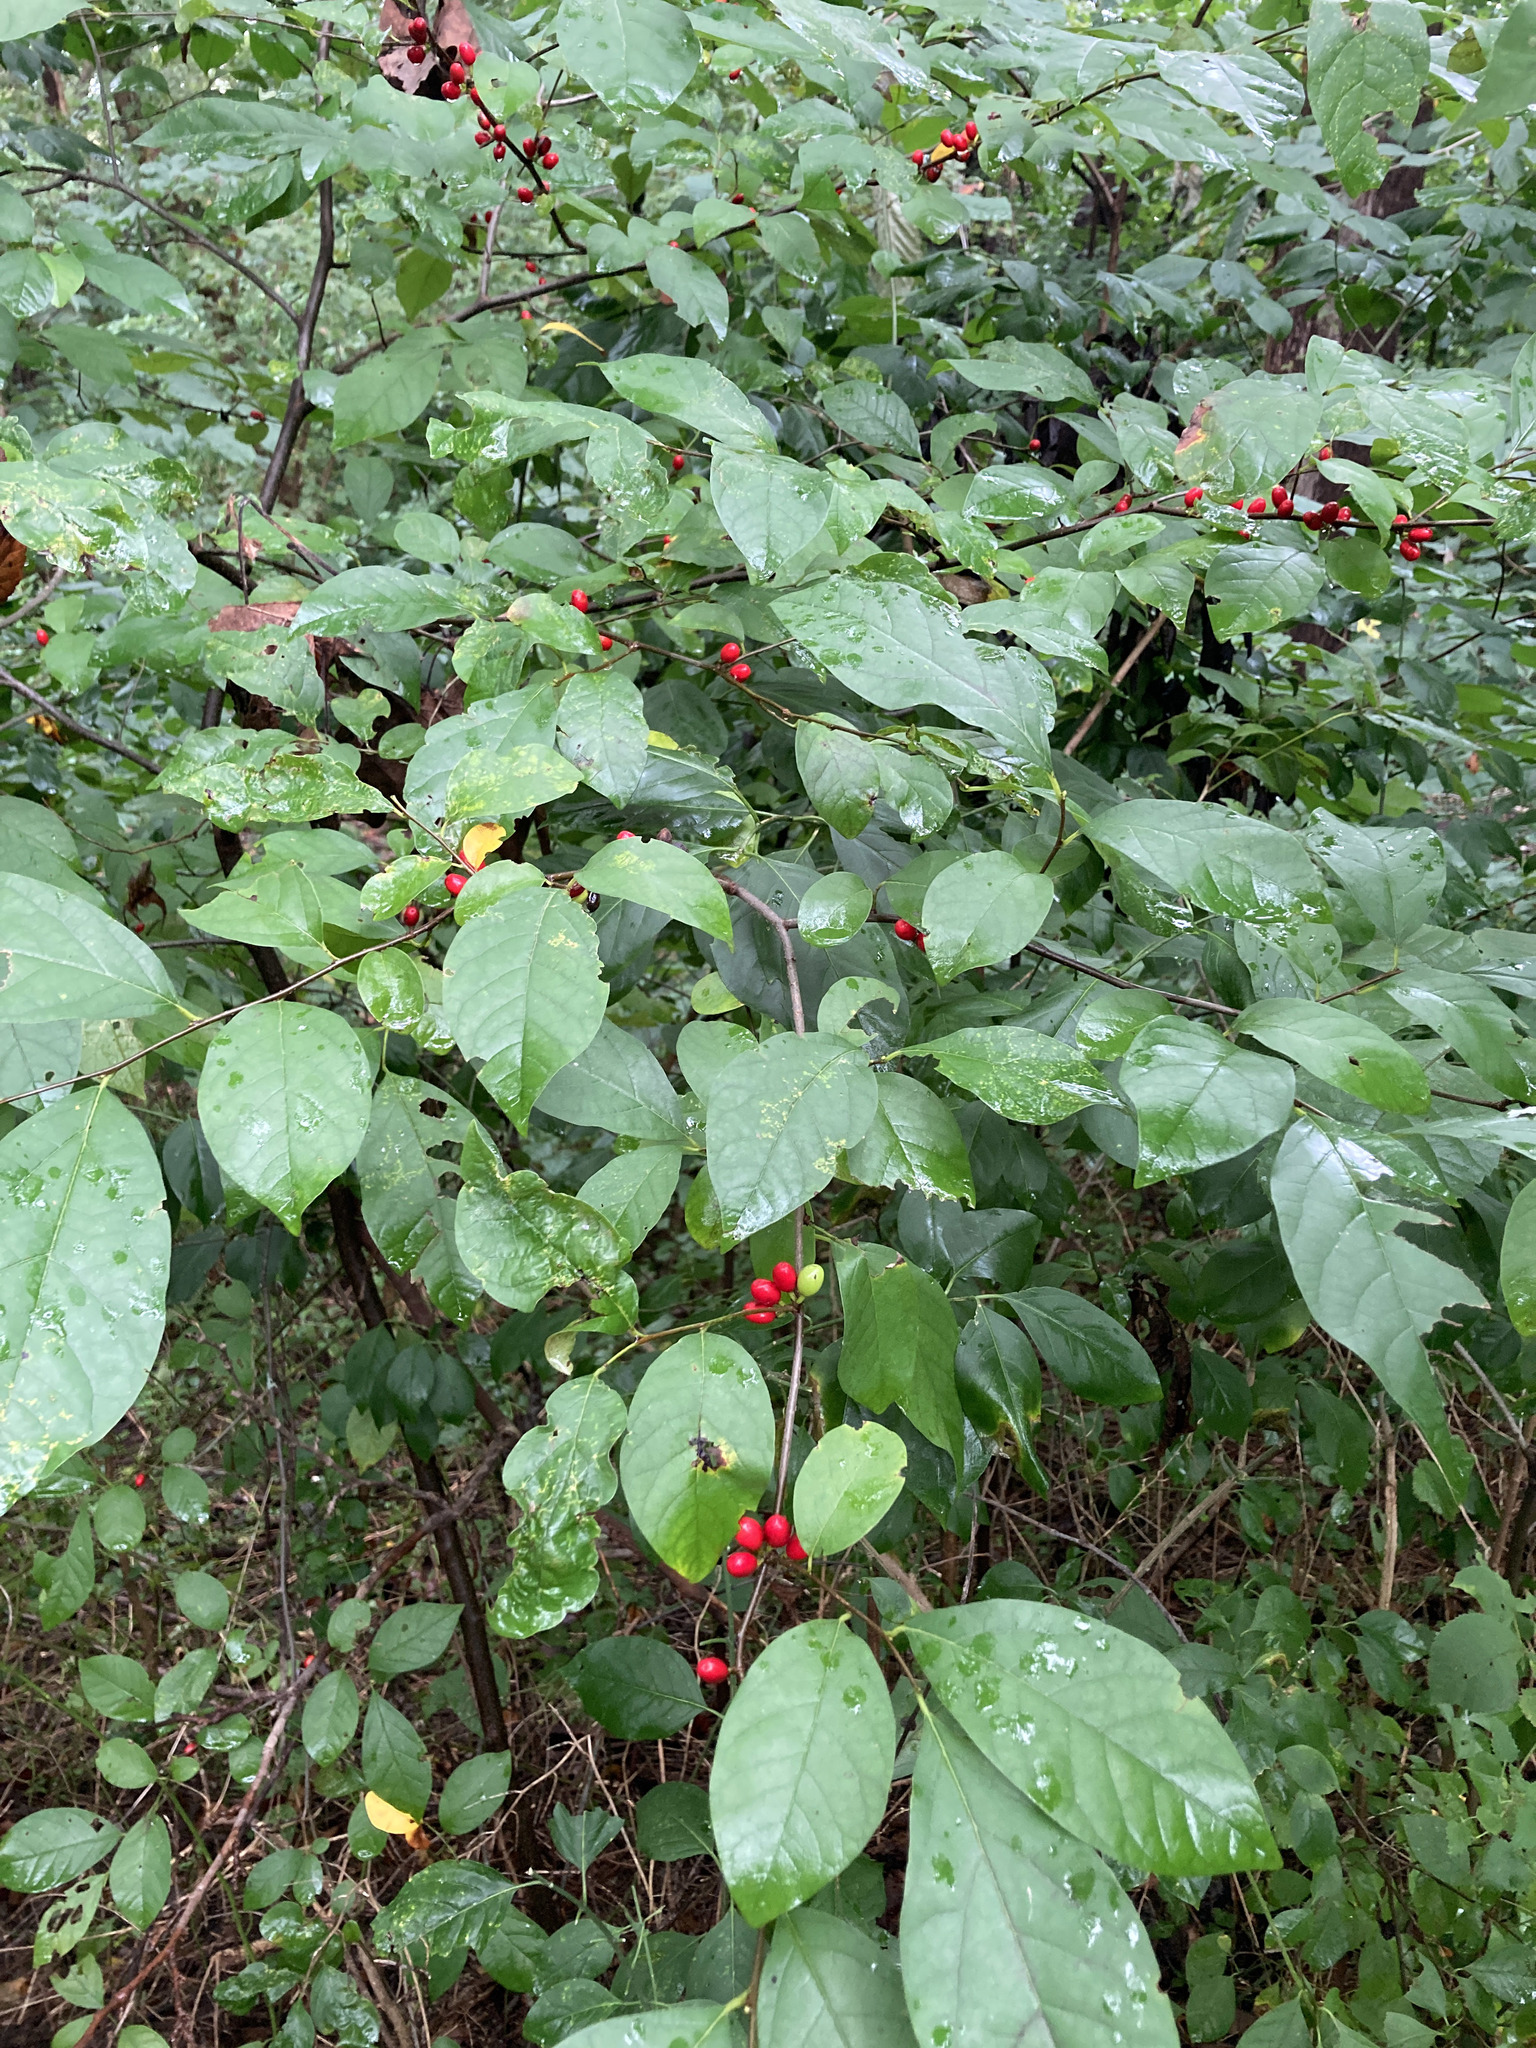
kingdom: Plantae
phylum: Tracheophyta
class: Magnoliopsida
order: Laurales
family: Lauraceae
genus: Lindera
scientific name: Lindera benzoin
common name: Spicebush
